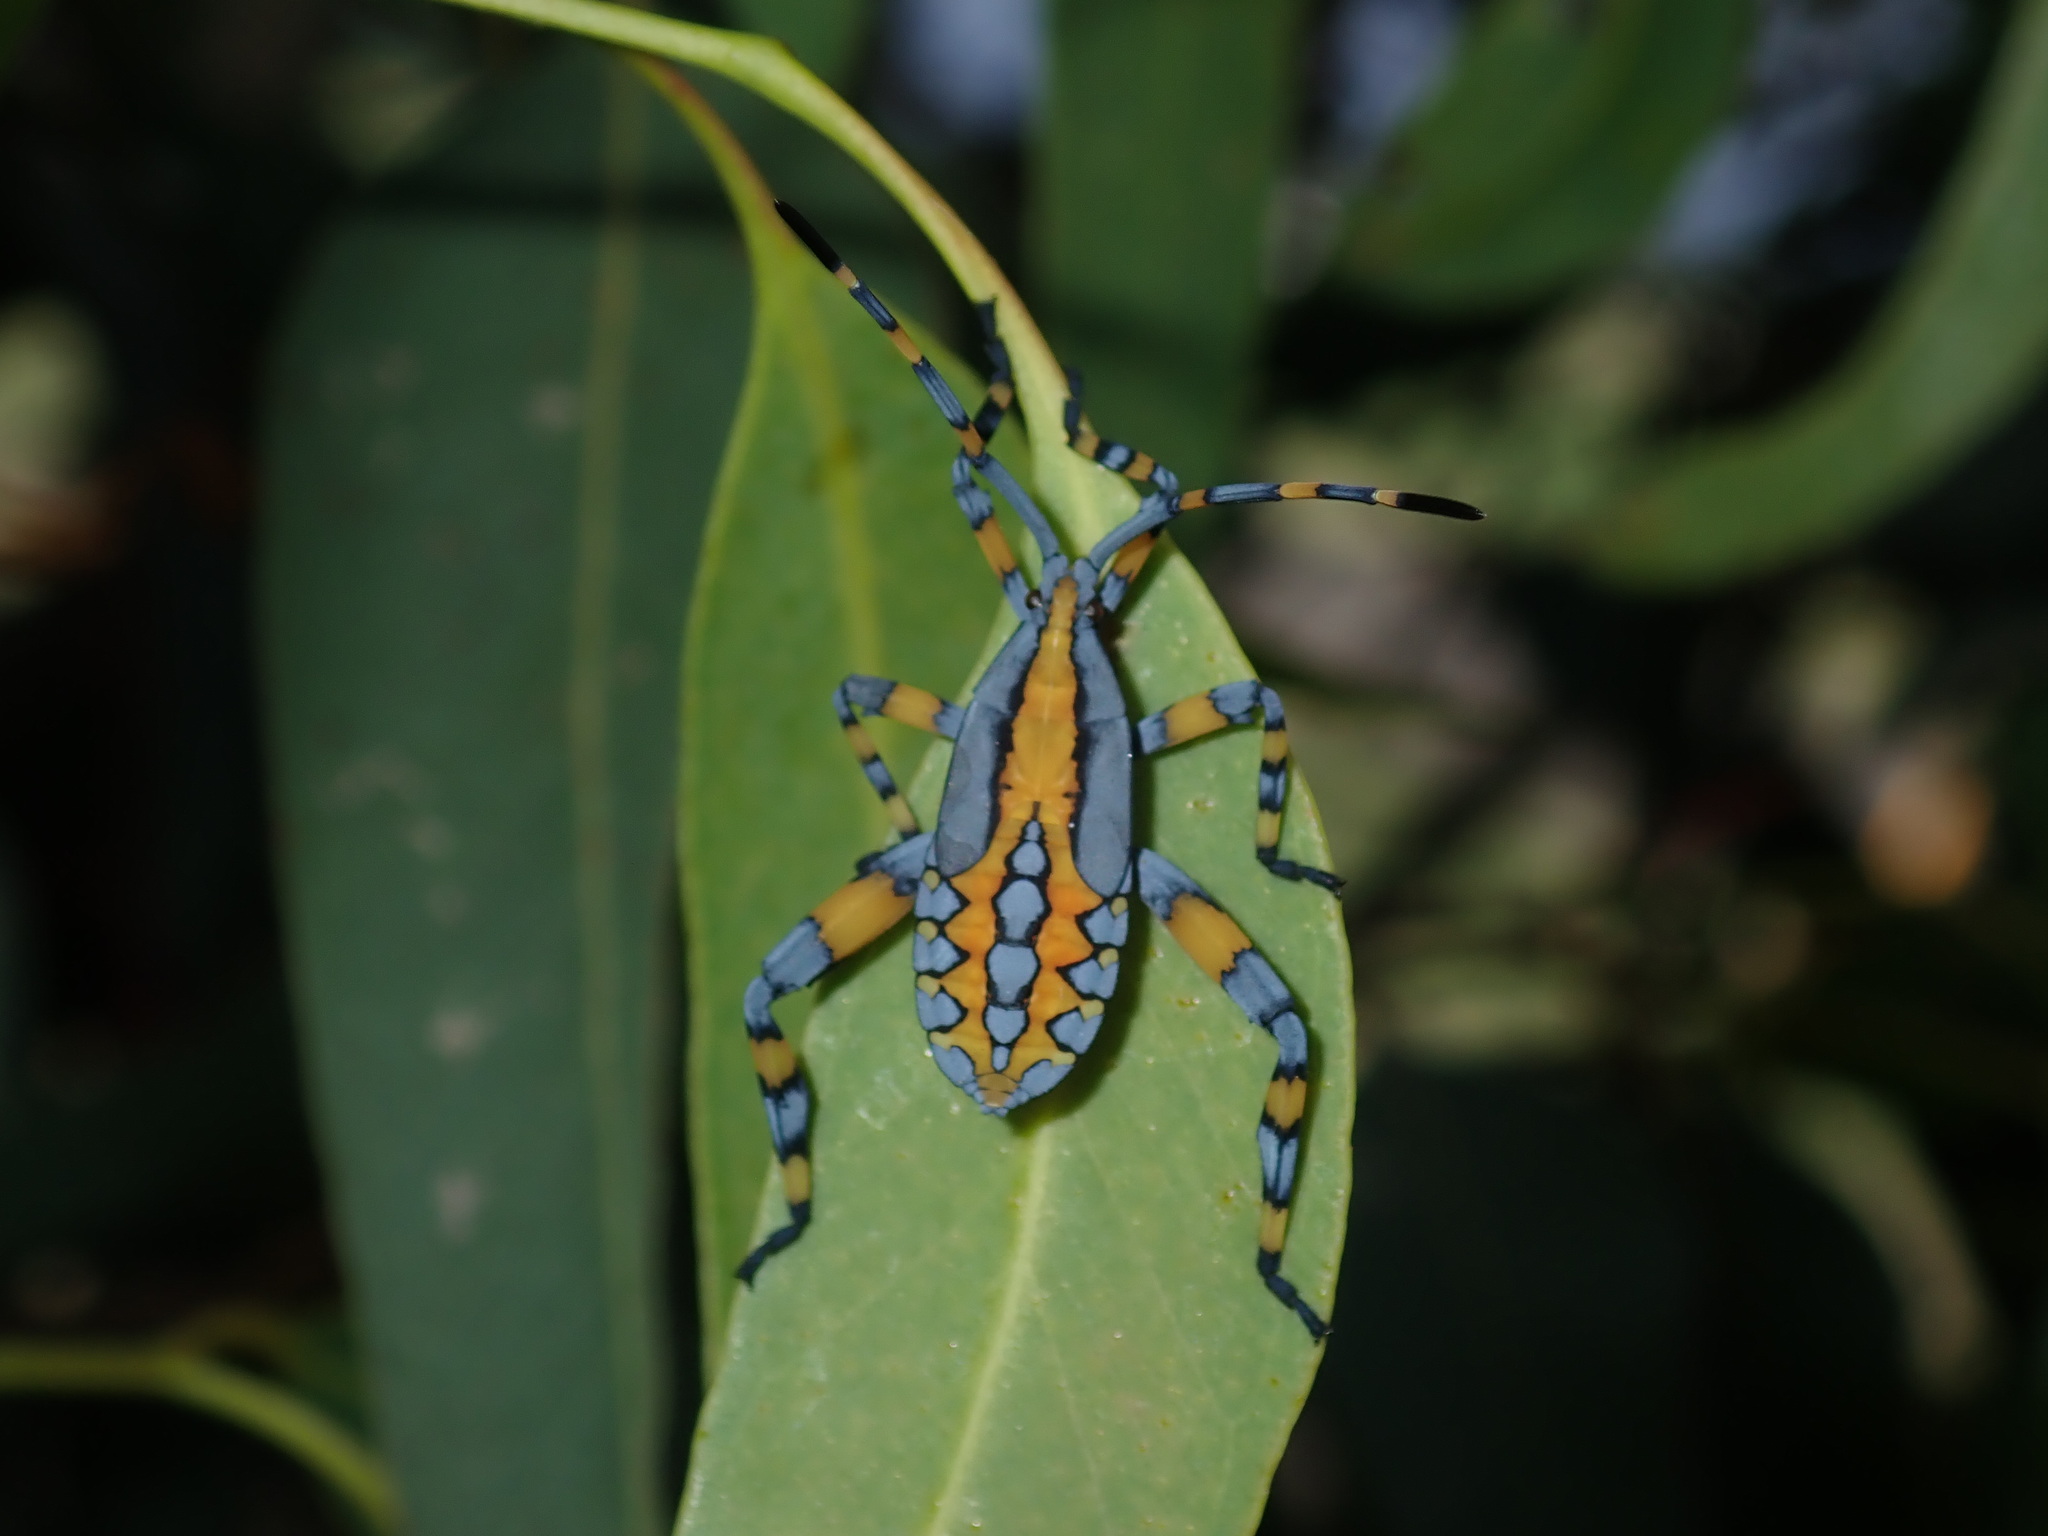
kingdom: Animalia
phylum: Arthropoda
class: Insecta
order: Hemiptera
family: Coreidae
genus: Amorbus
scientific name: Amorbus atomarius
